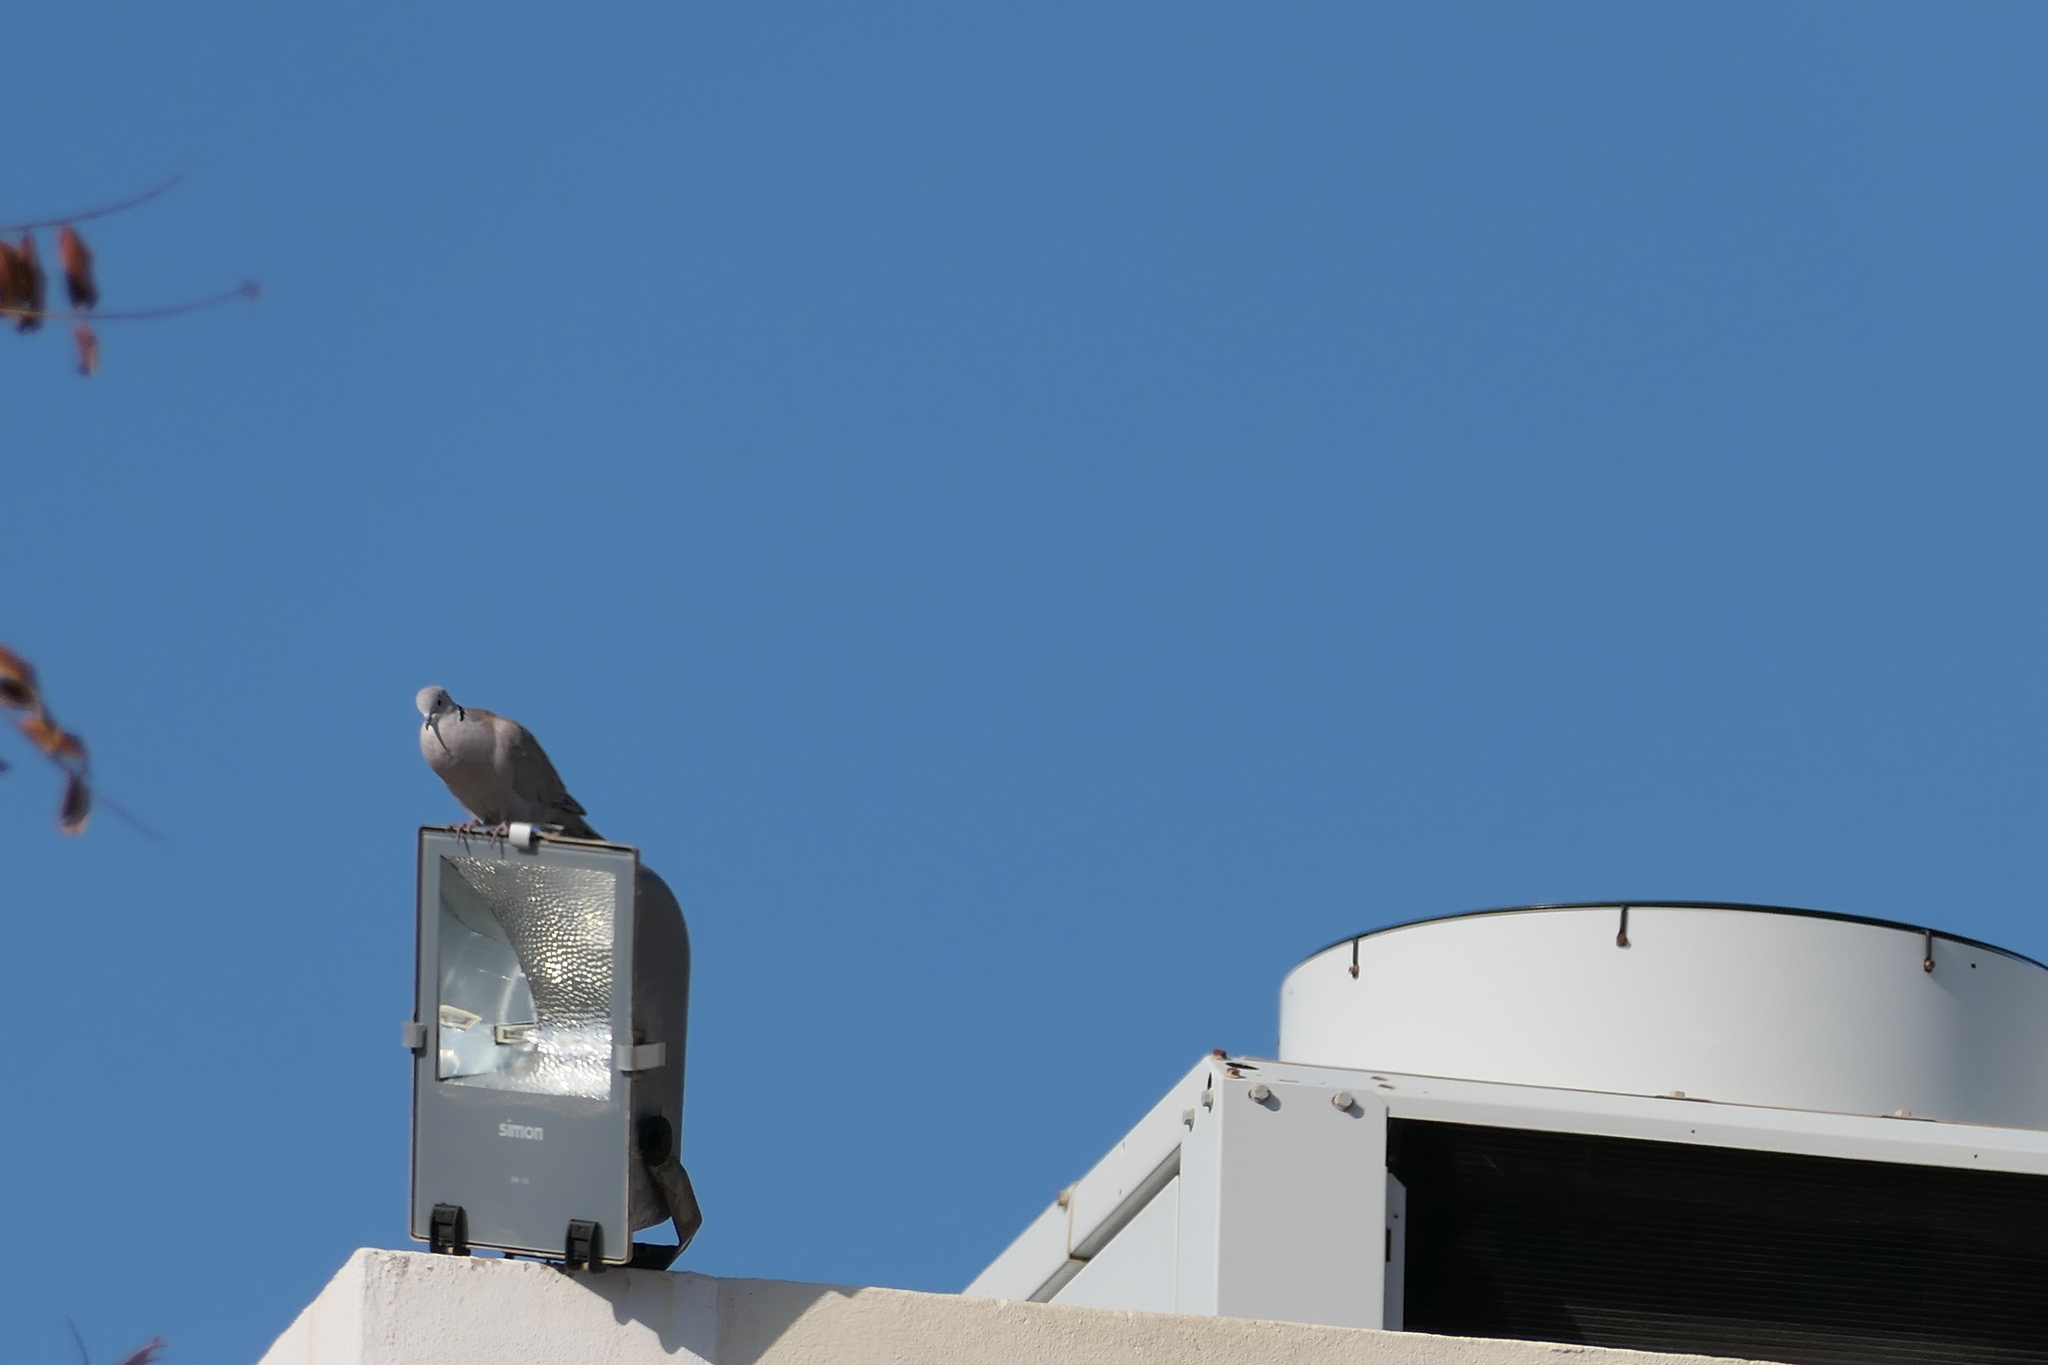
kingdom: Animalia
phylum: Chordata
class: Aves
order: Columbiformes
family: Columbidae
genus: Streptopelia
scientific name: Streptopelia decaocto
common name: Eurasian collared dove
